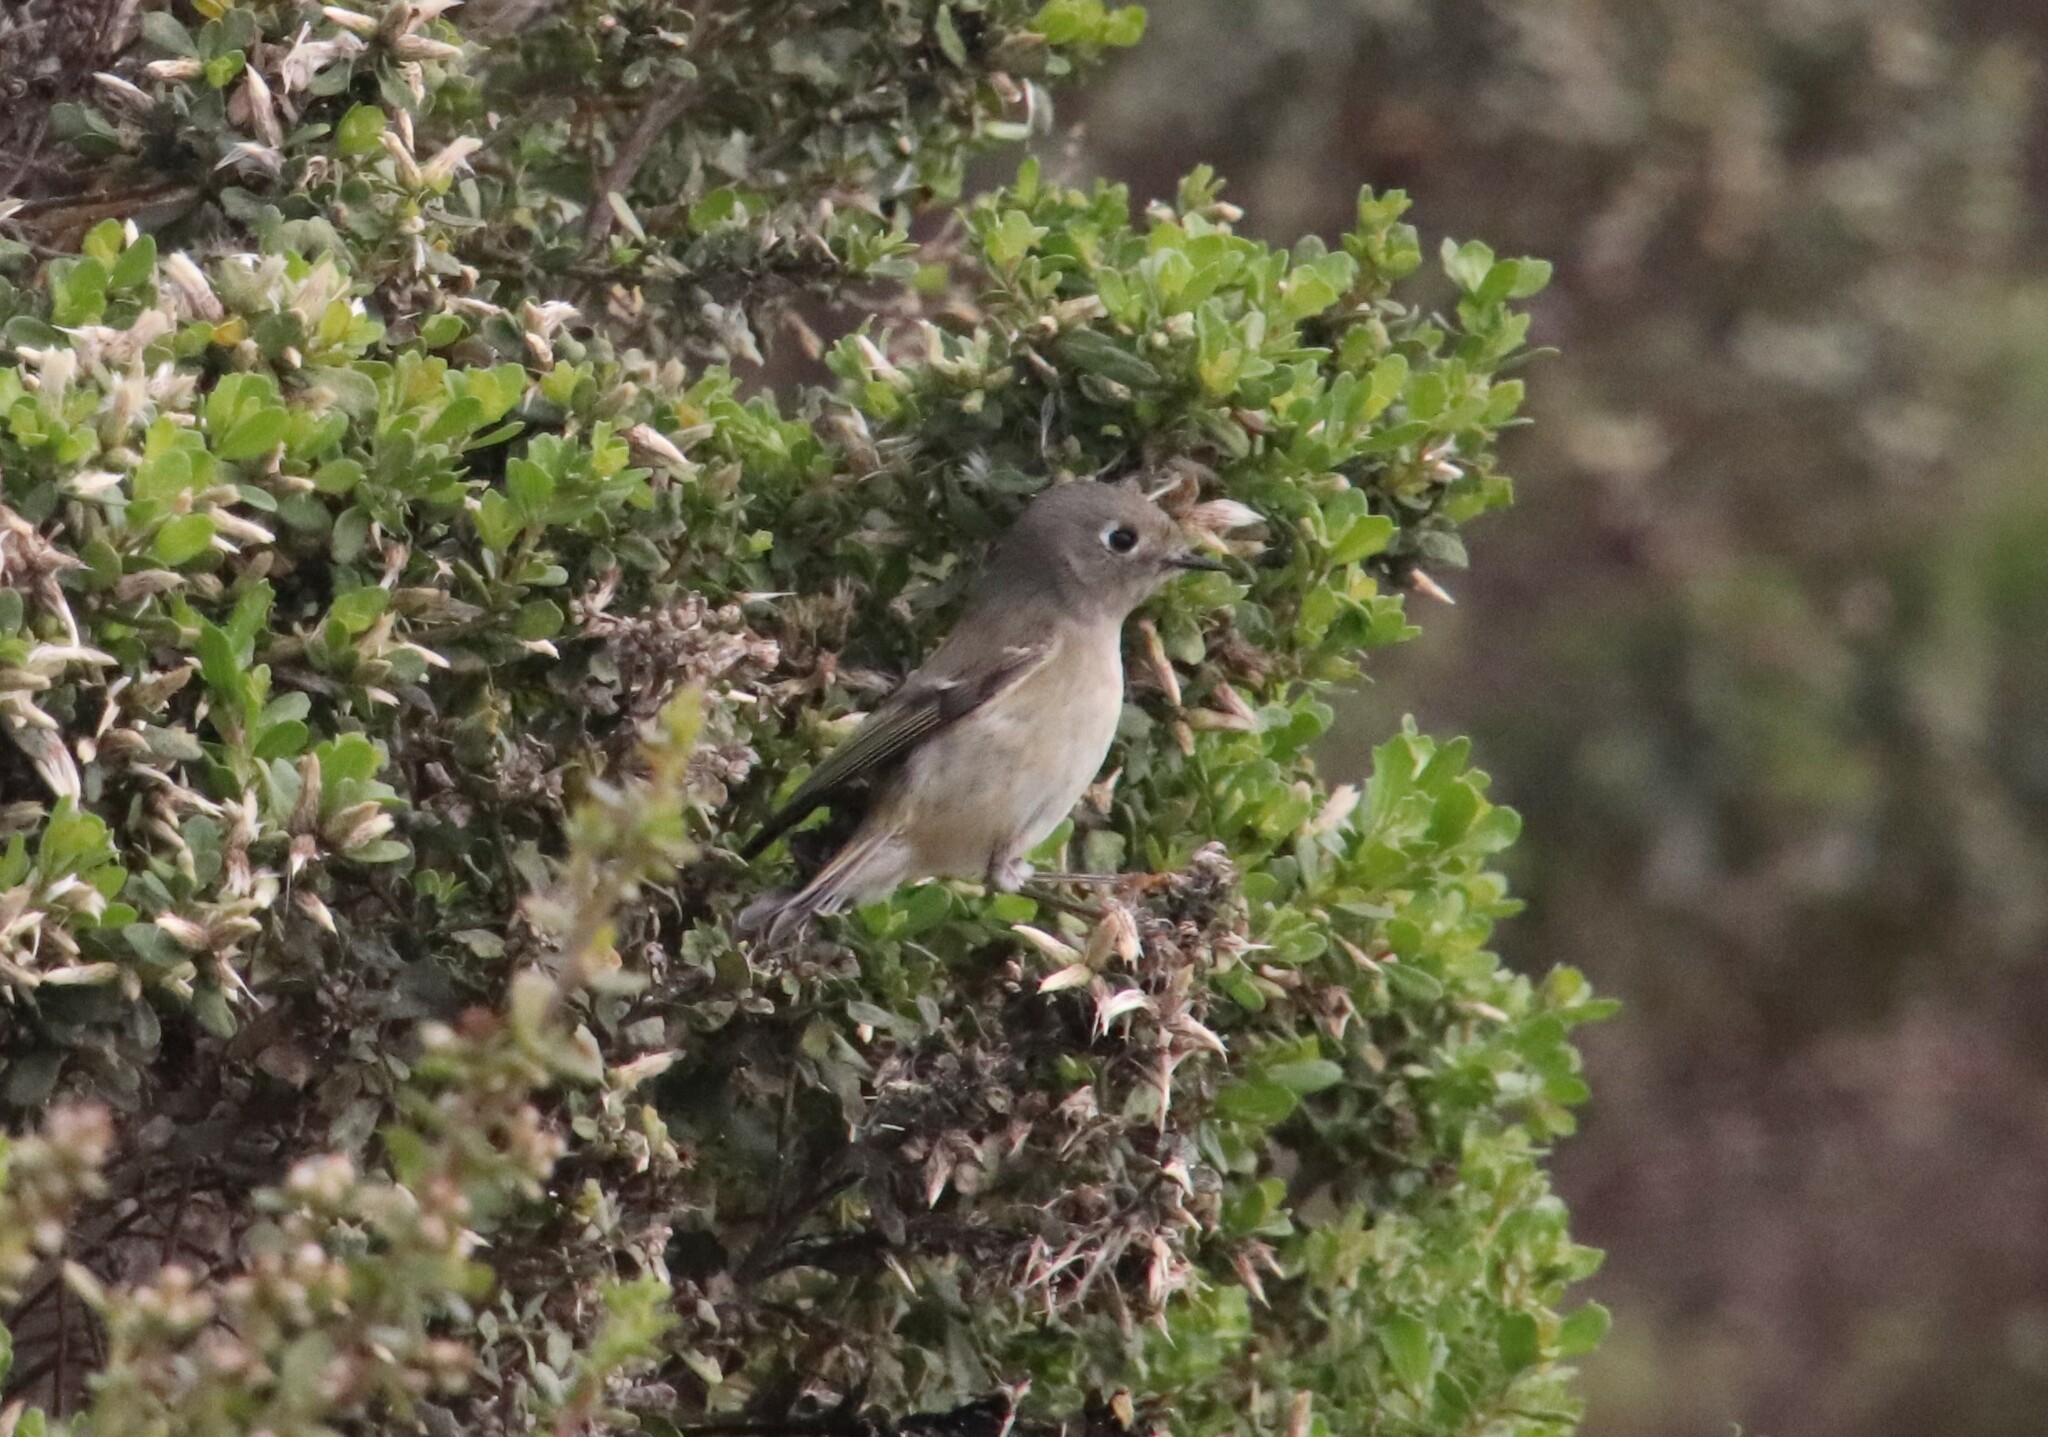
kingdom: Animalia
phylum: Chordata
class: Aves
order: Passeriformes
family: Regulidae
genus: Regulus
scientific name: Regulus calendula
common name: Ruby-crowned kinglet
